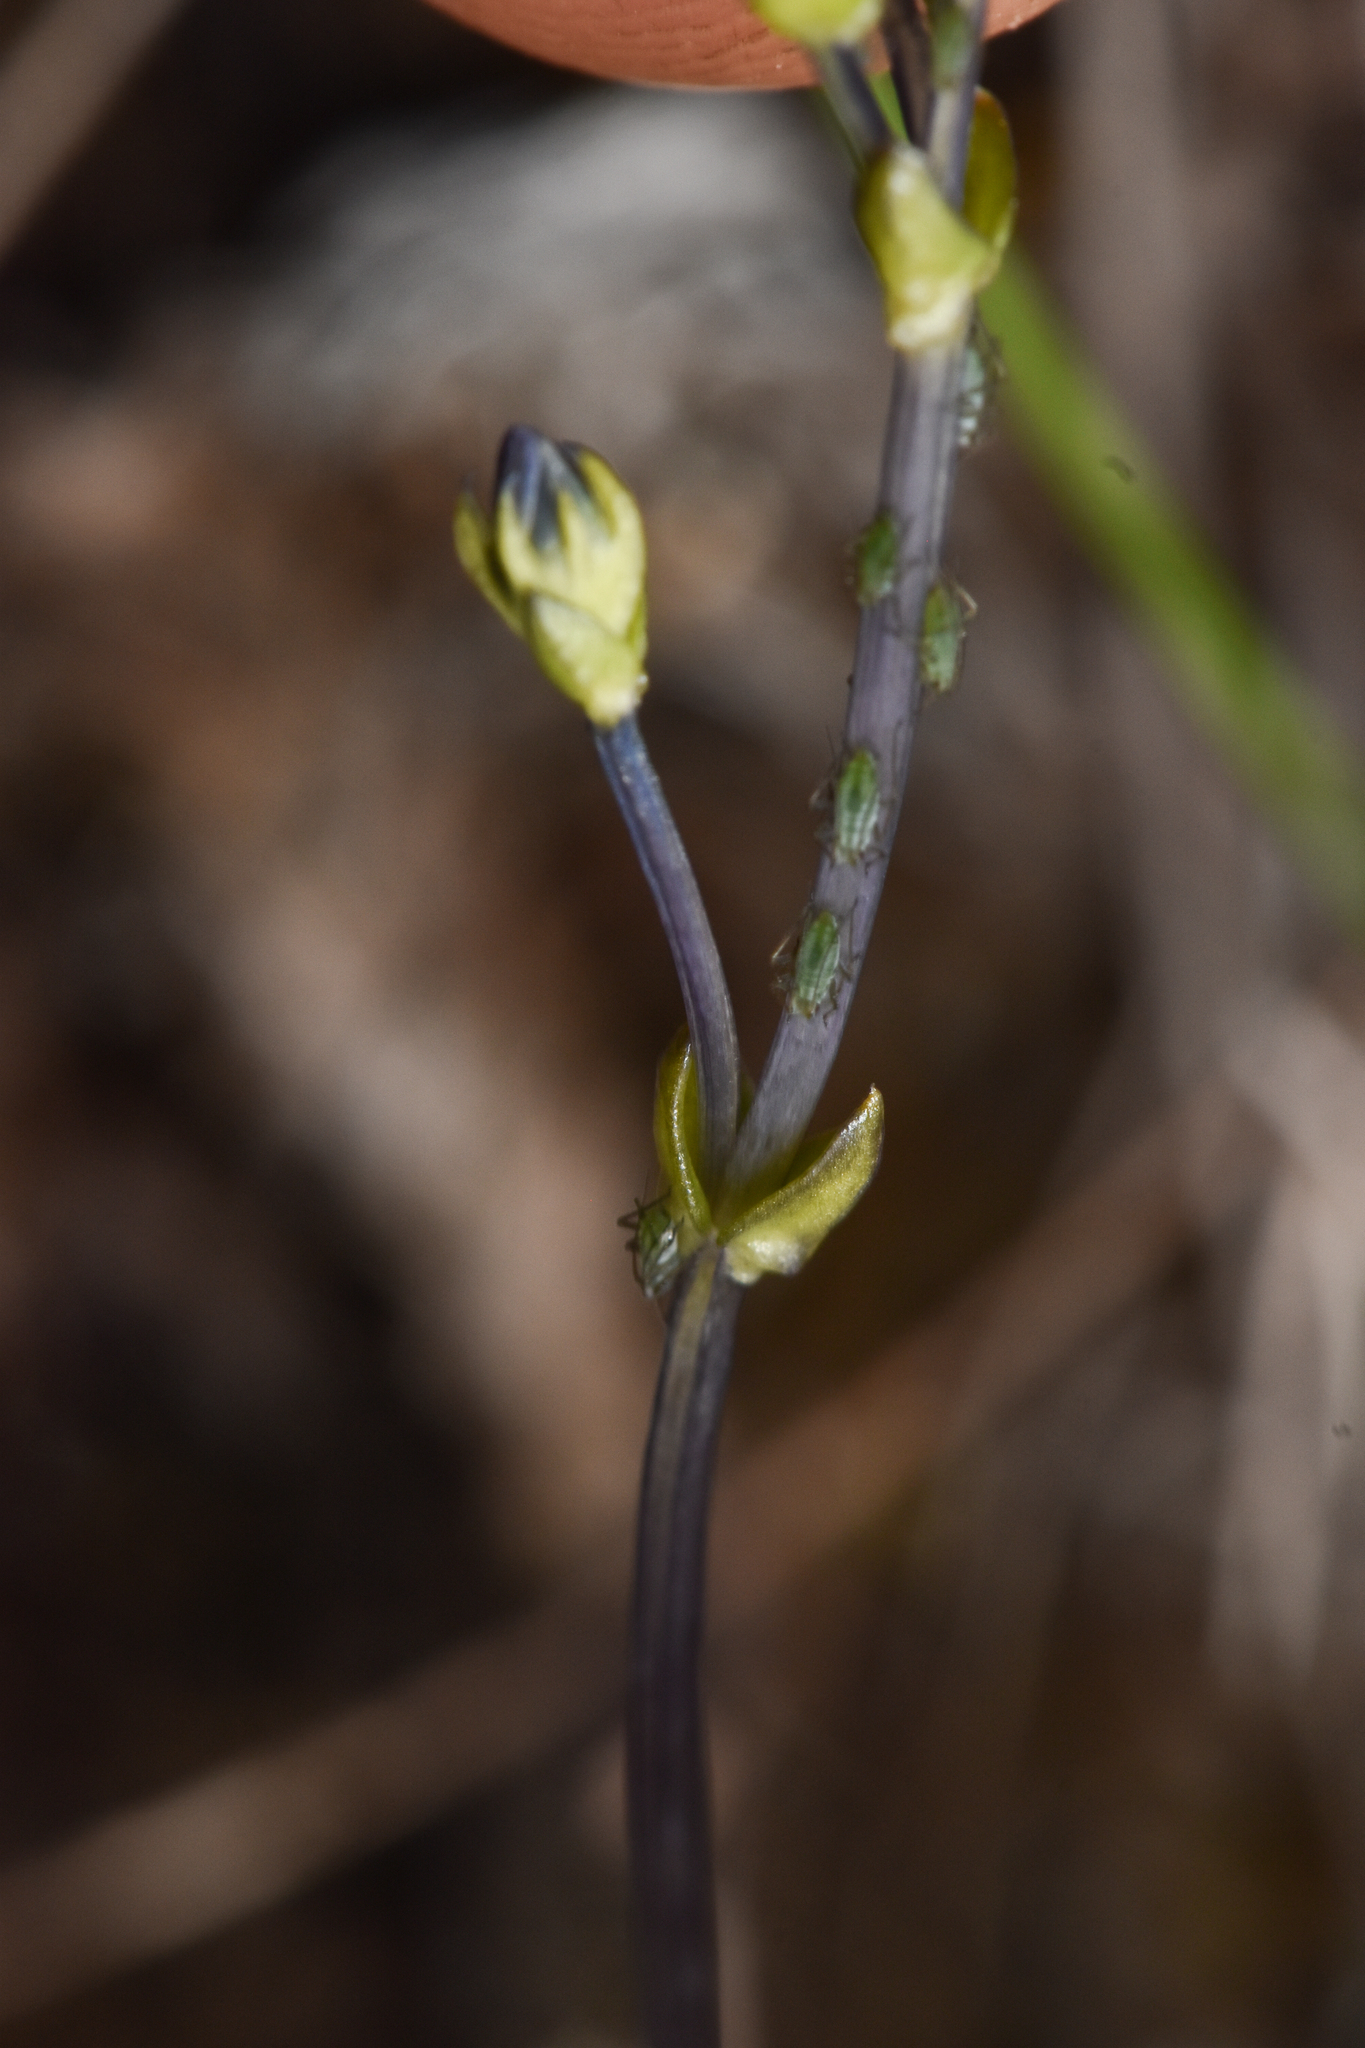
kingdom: Plantae
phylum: Tracheophyta
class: Magnoliopsida
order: Gentianales
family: Gentianaceae
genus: Gentiana
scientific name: Gentiana douglasiana
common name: Swamp gentian
